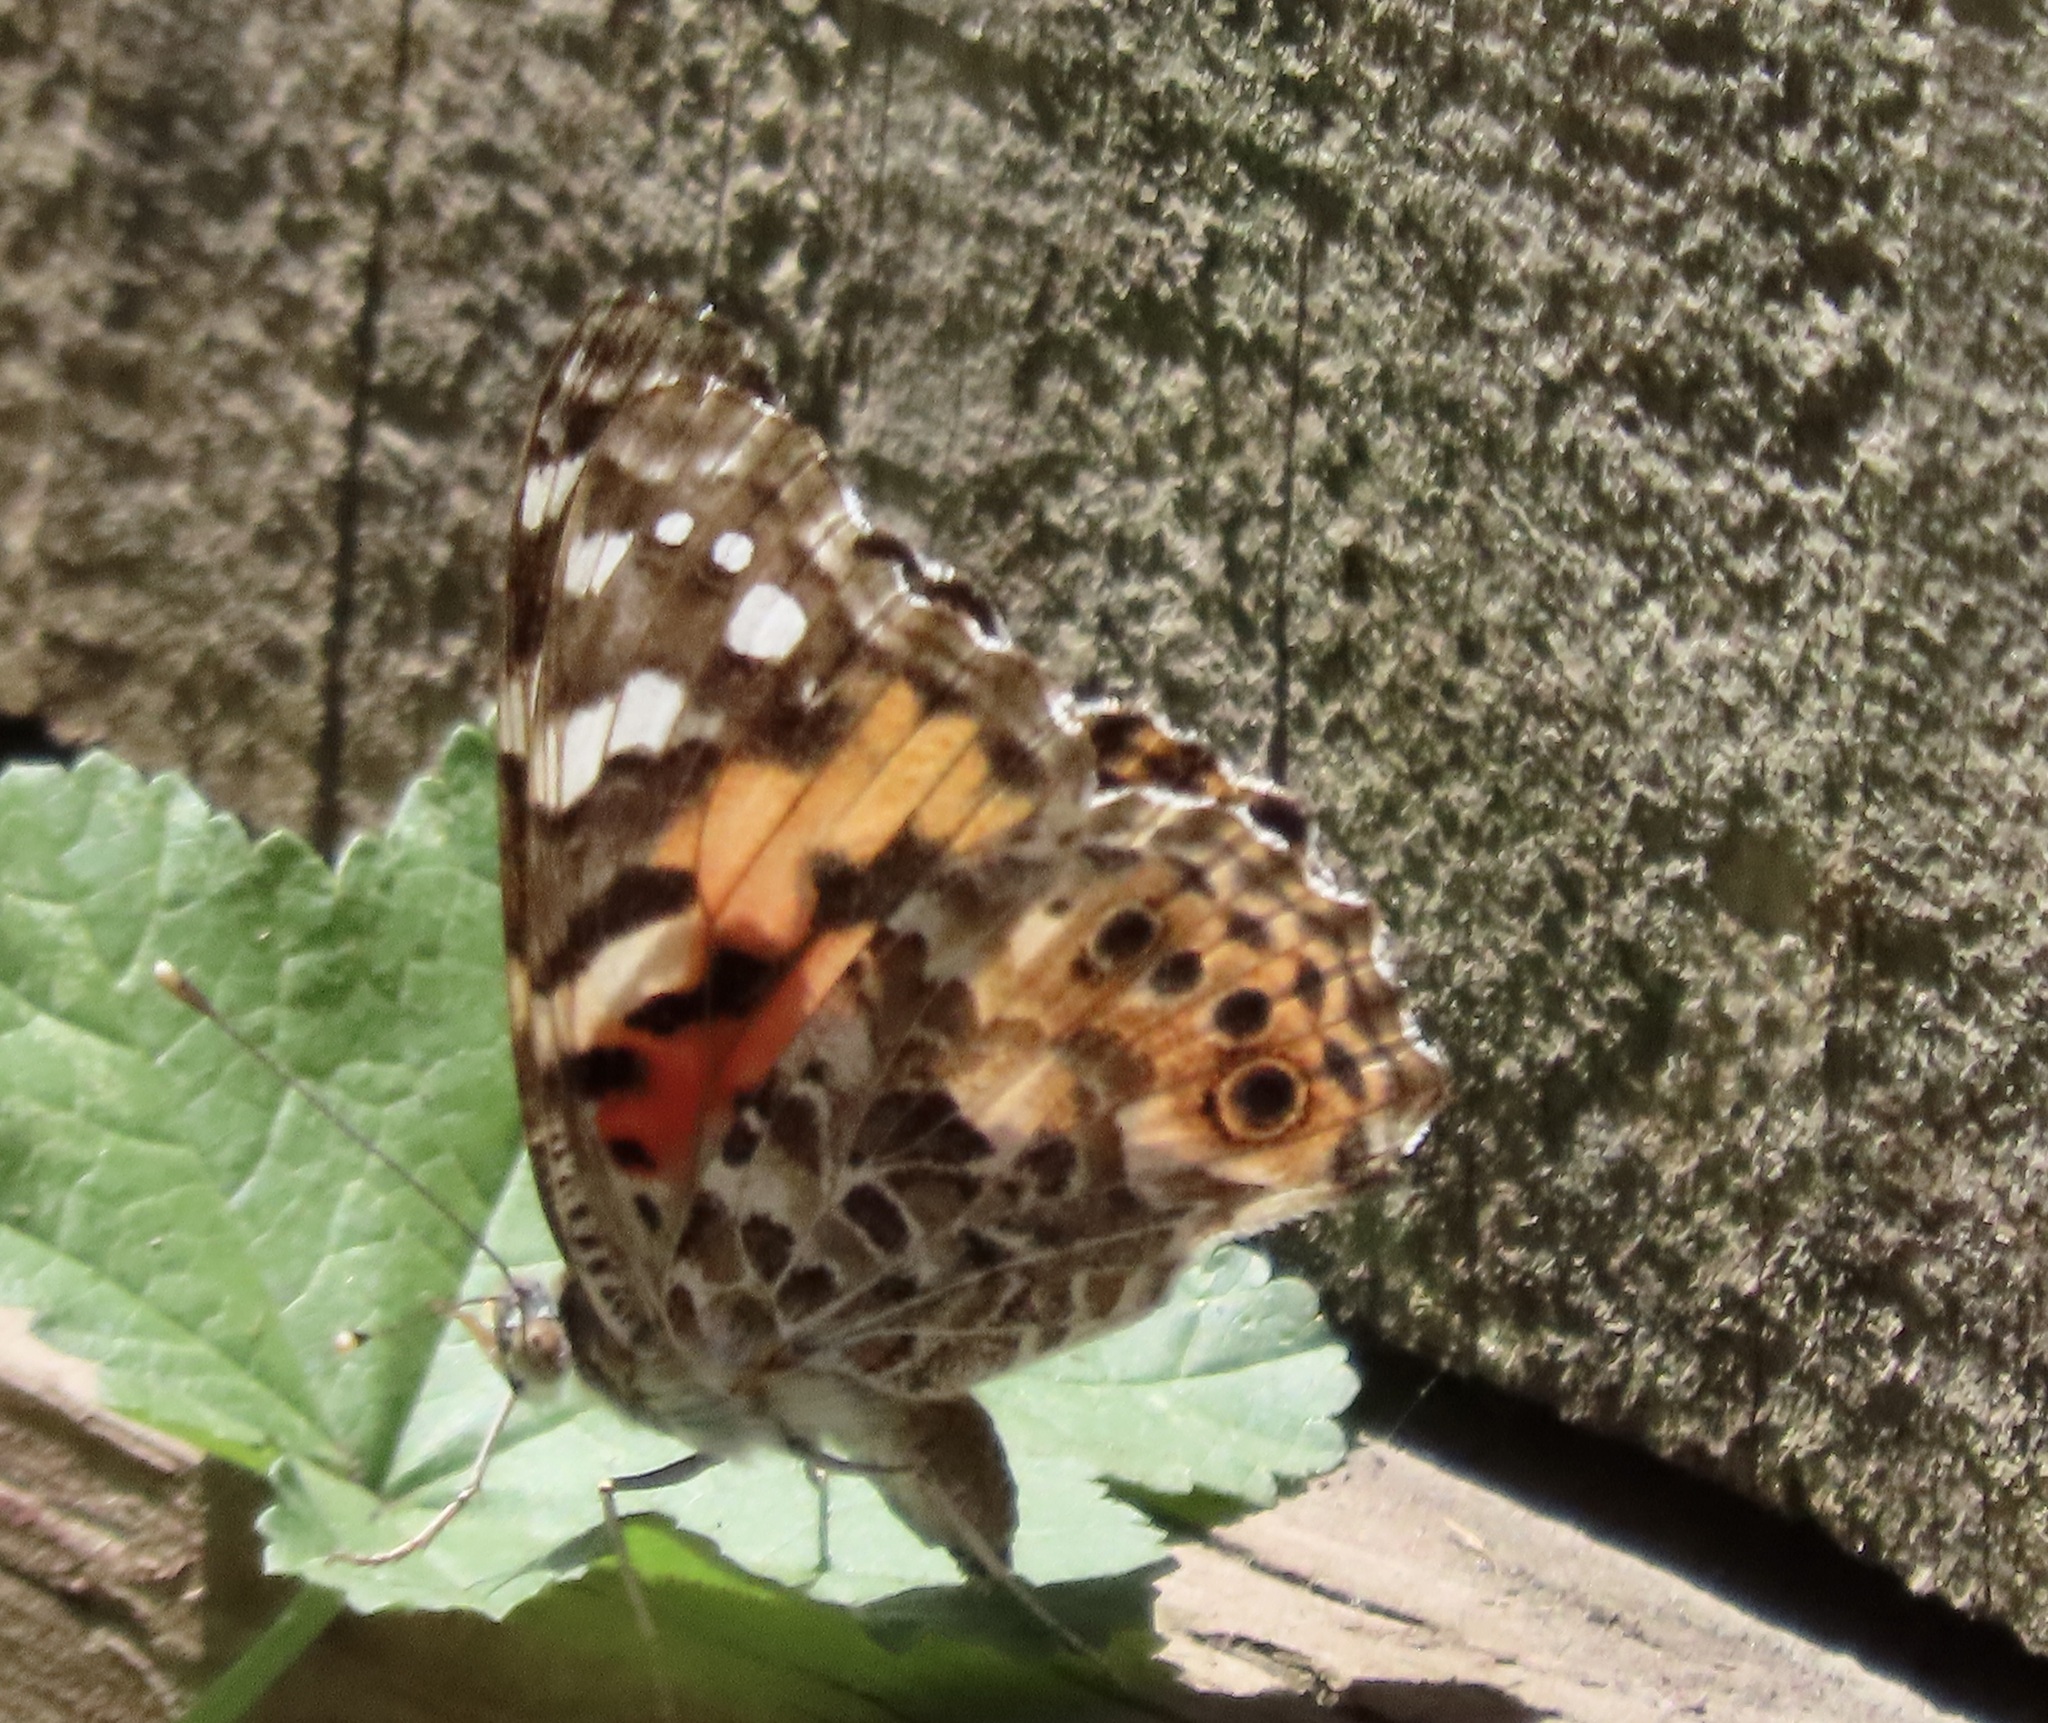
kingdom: Animalia
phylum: Arthropoda
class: Insecta
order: Lepidoptera
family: Nymphalidae
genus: Vanessa
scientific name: Vanessa cardui
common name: Painted lady
